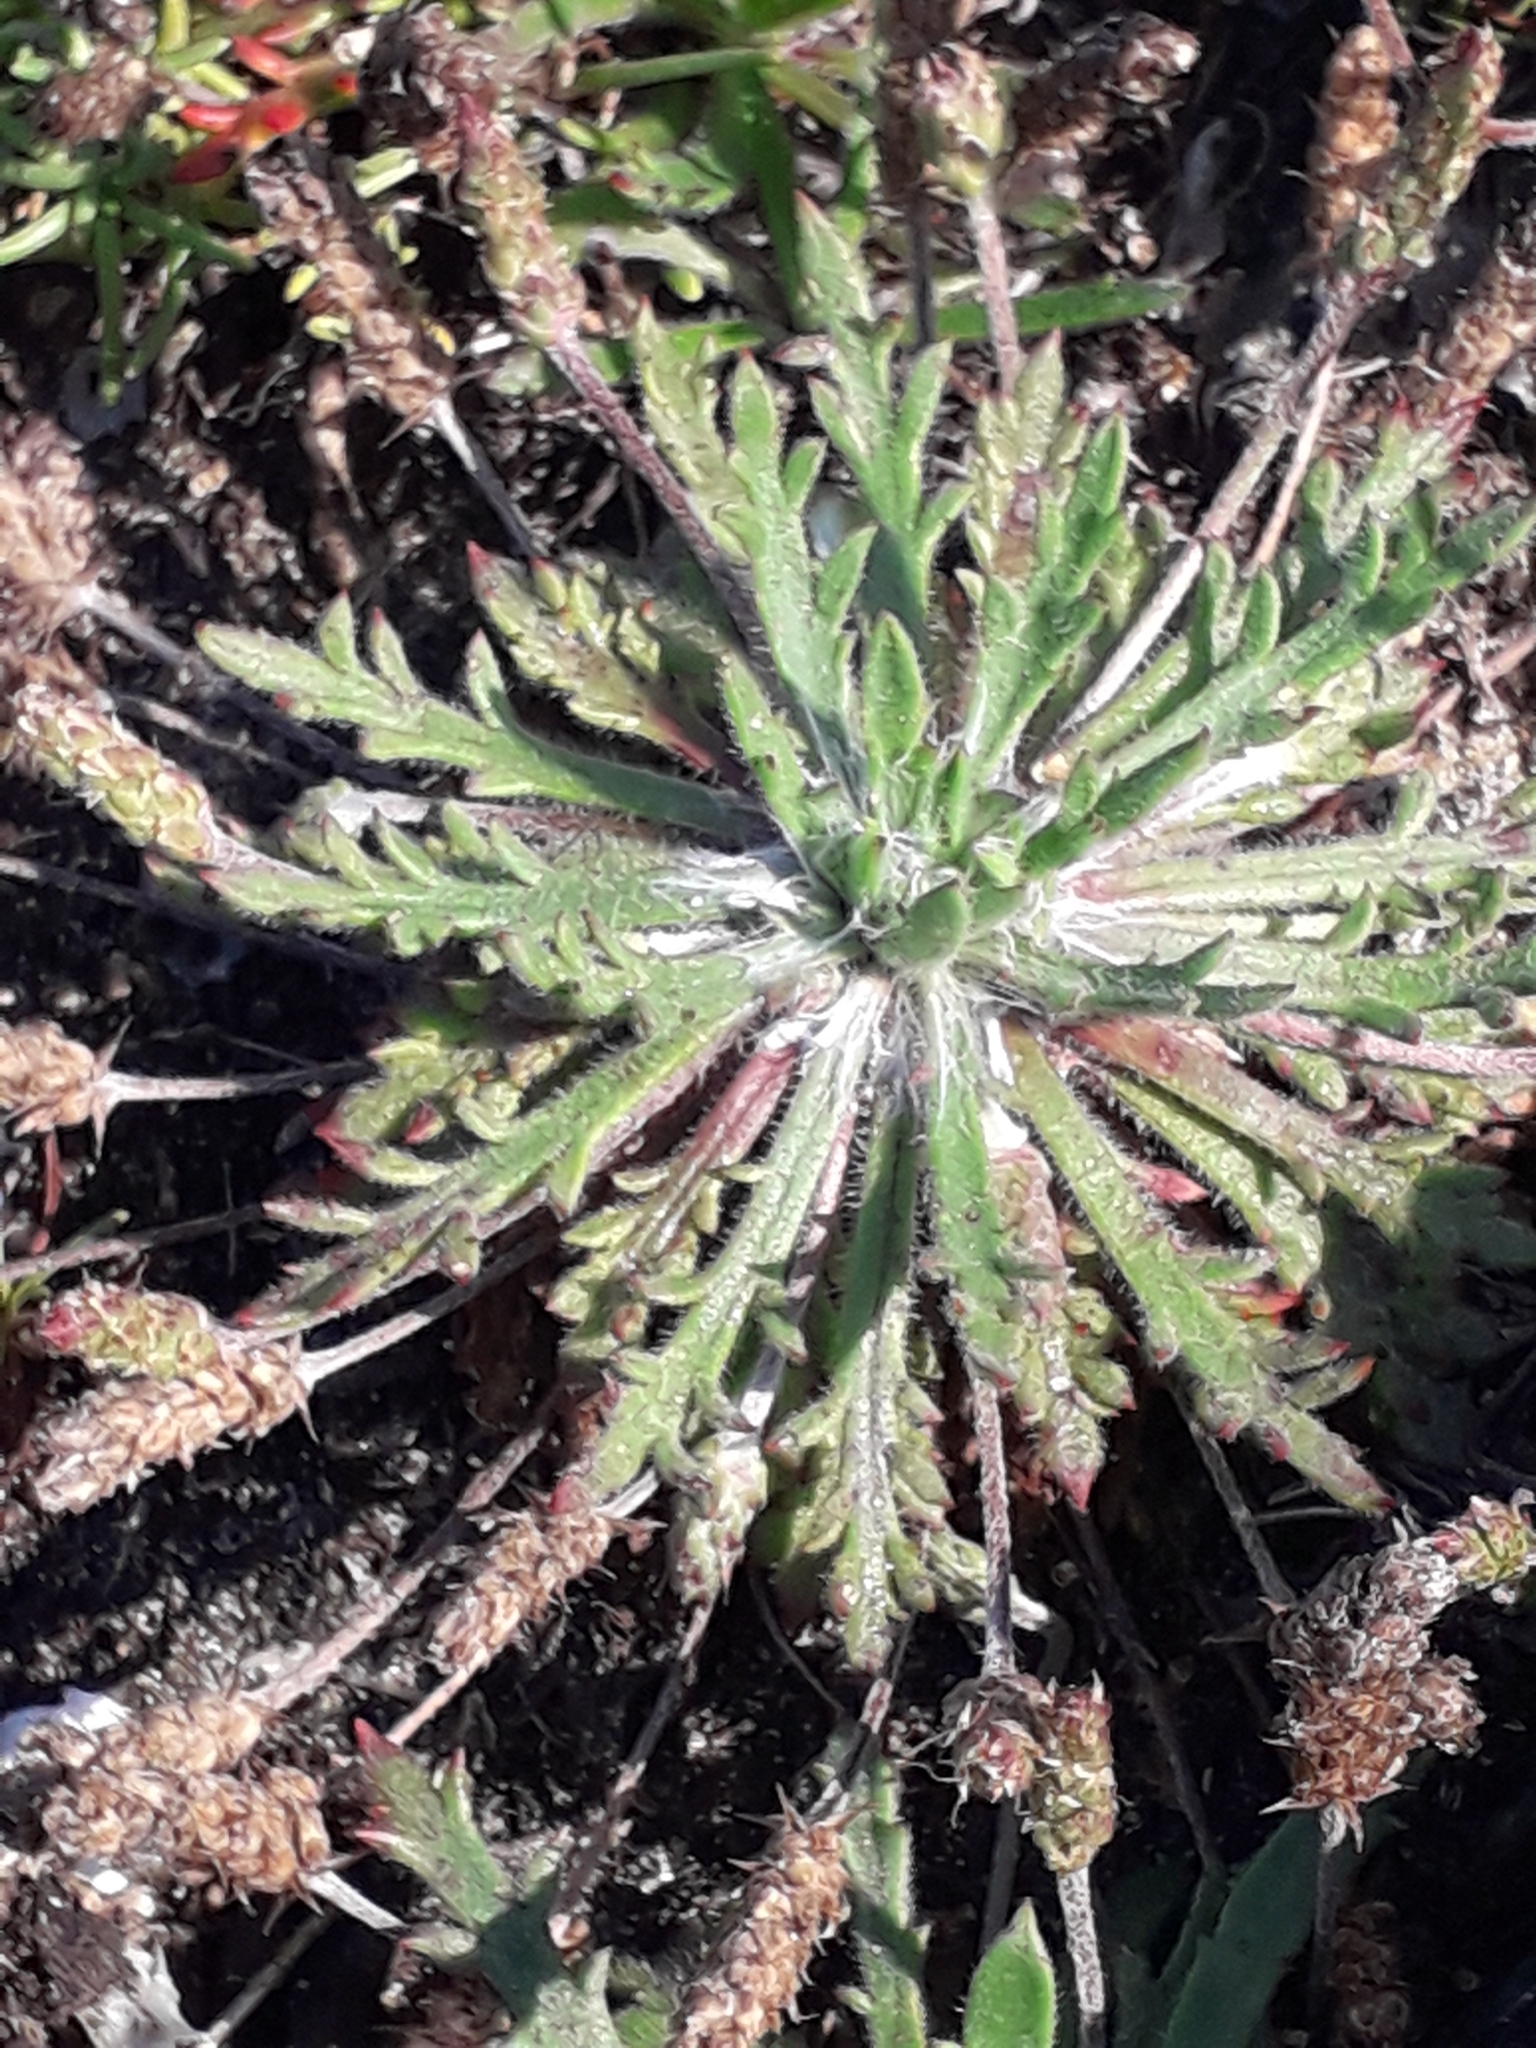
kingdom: Plantae
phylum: Tracheophyta
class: Magnoliopsida
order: Lamiales
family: Plantaginaceae
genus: Plantago
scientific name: Plantago coronopus
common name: Buck's-horn plantain
